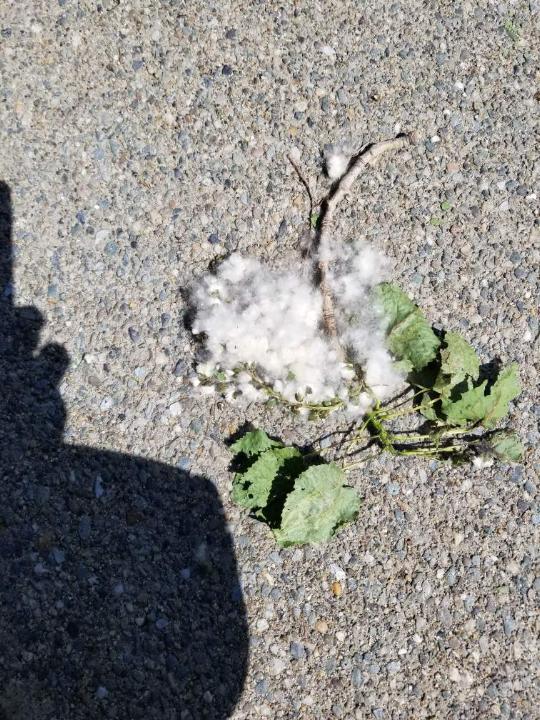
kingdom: Plantae
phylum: Tracheophyta
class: Magnoliopsida
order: Malpighiales
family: Salicaceae
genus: Populus
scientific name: Populus deltoides
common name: Eastern cottonwood
